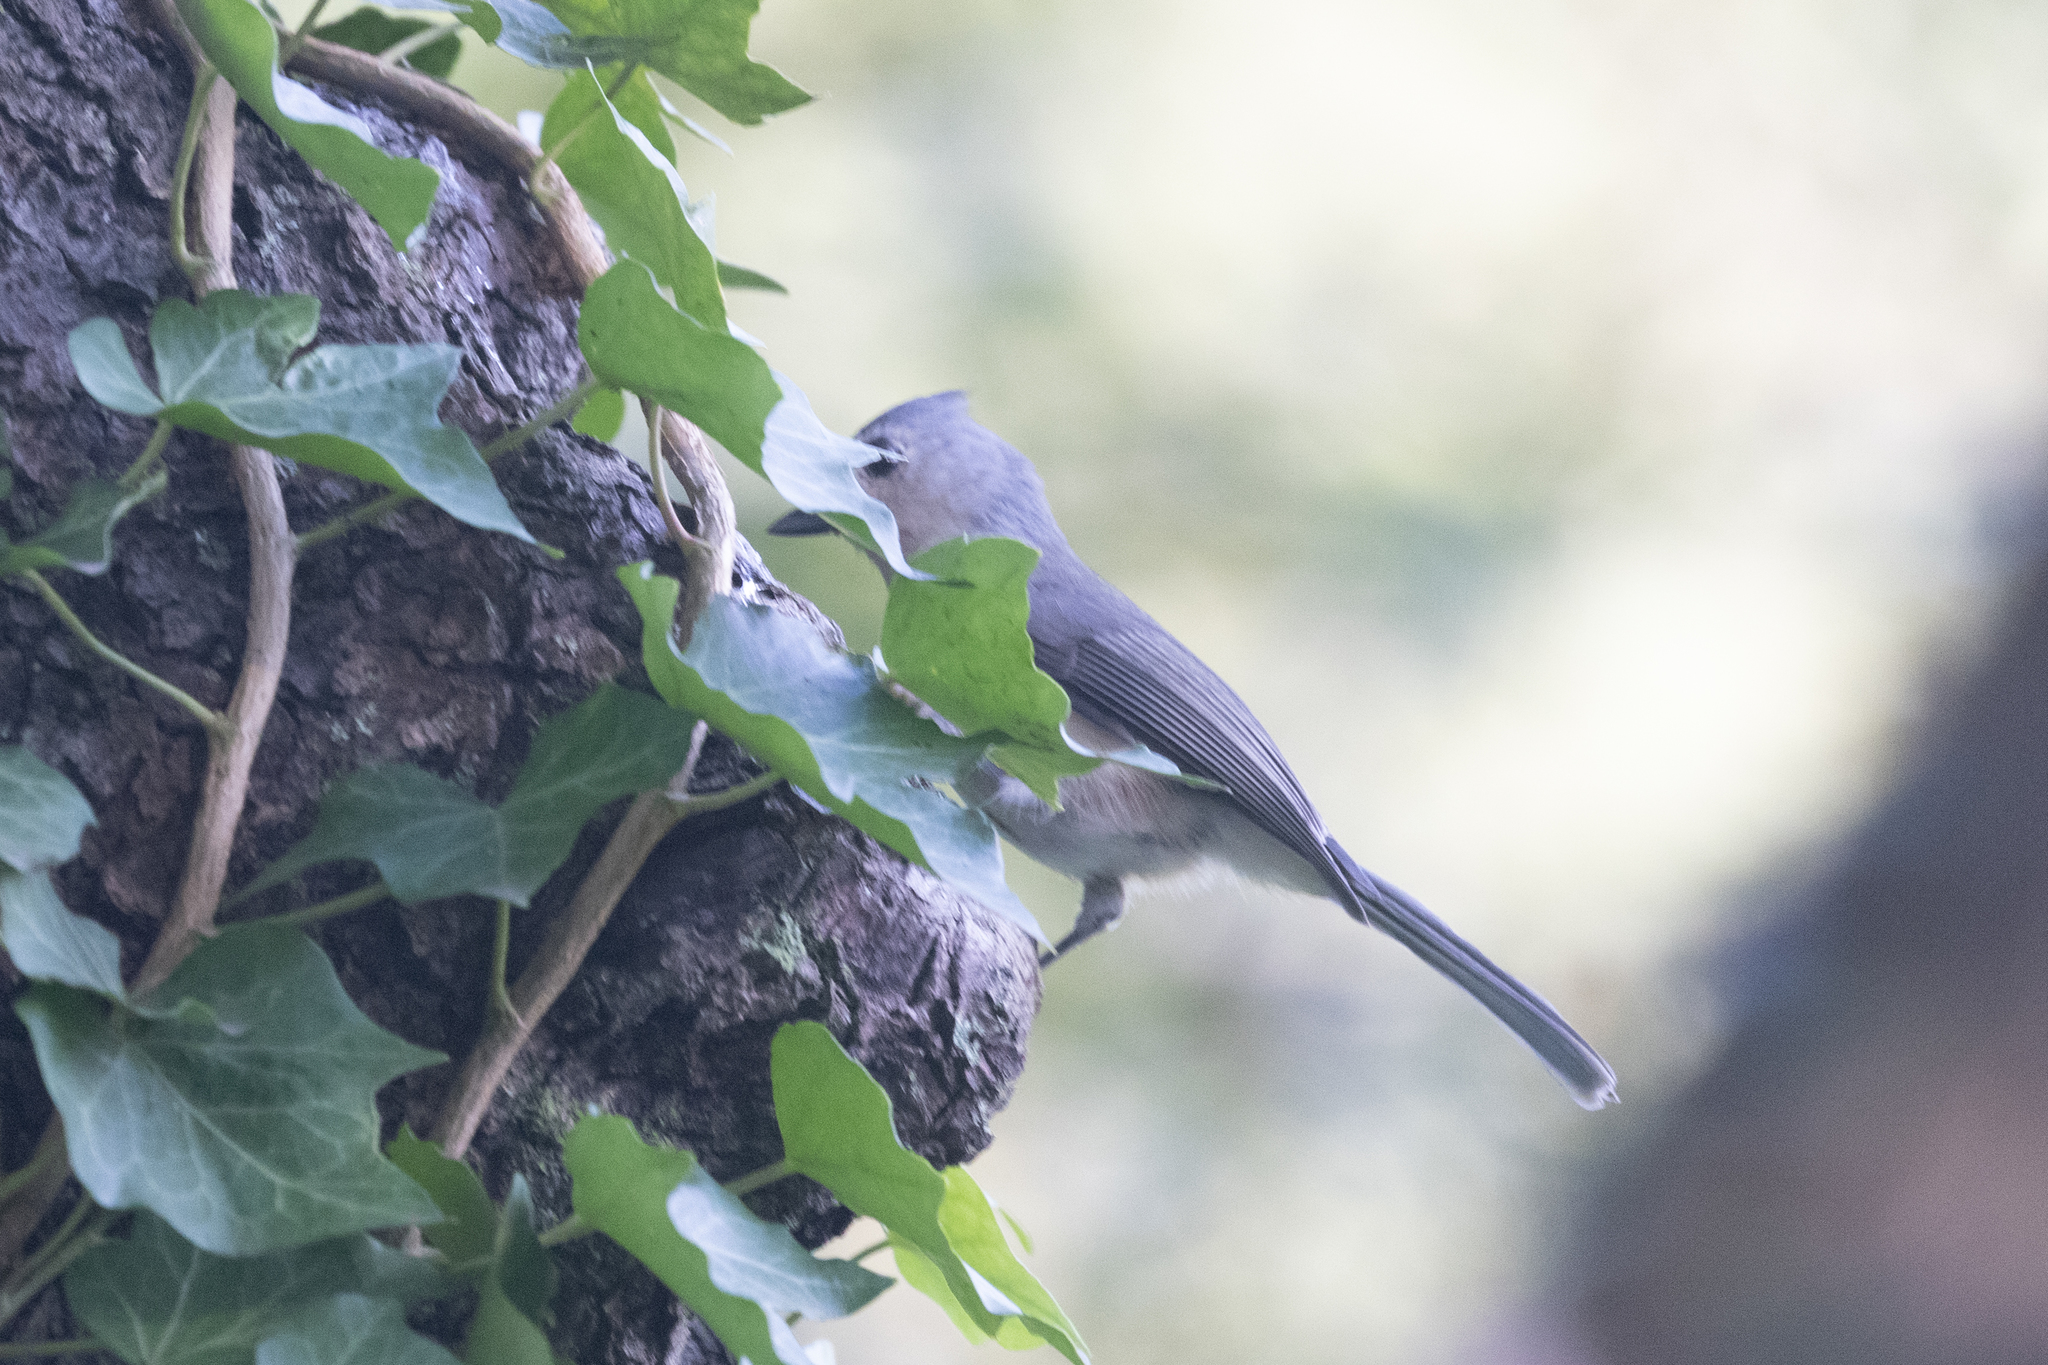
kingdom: Animalia
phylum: Chordata
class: Aves
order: Passeriformes
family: Paridae
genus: Baeolophus
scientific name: Baeolophus bicolor
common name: Tufted titmouse
